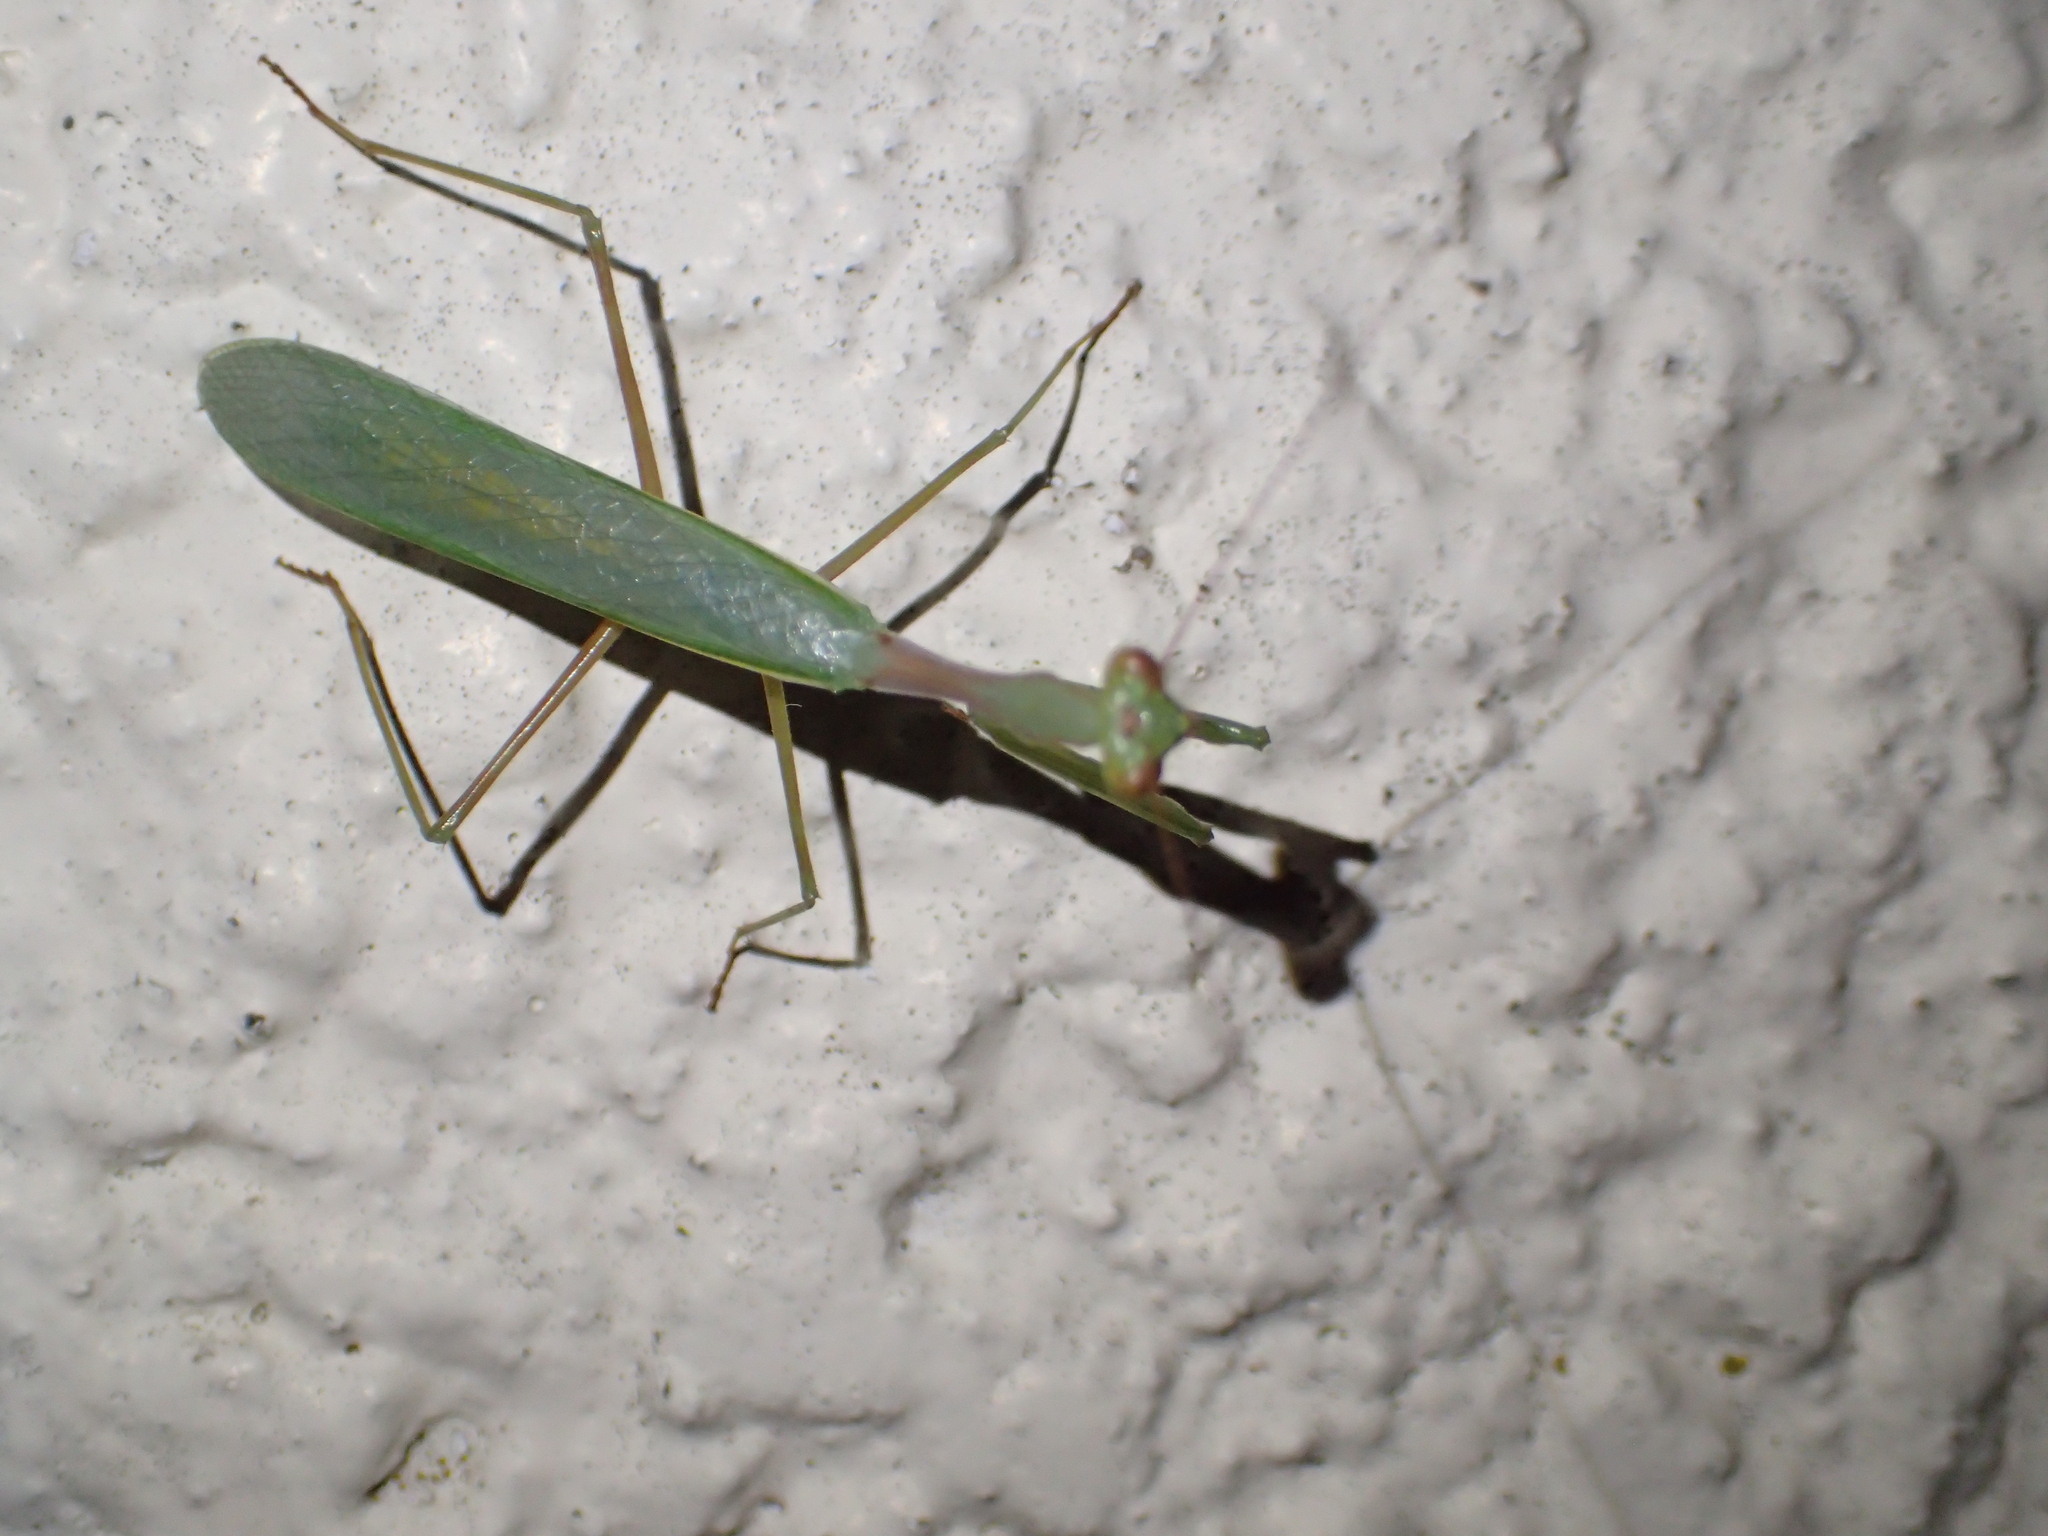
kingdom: Animalia
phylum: Arthropoda
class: Insecta
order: Mantodea
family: Miomantidae
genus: Miomantis
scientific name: Miomantis caffra
